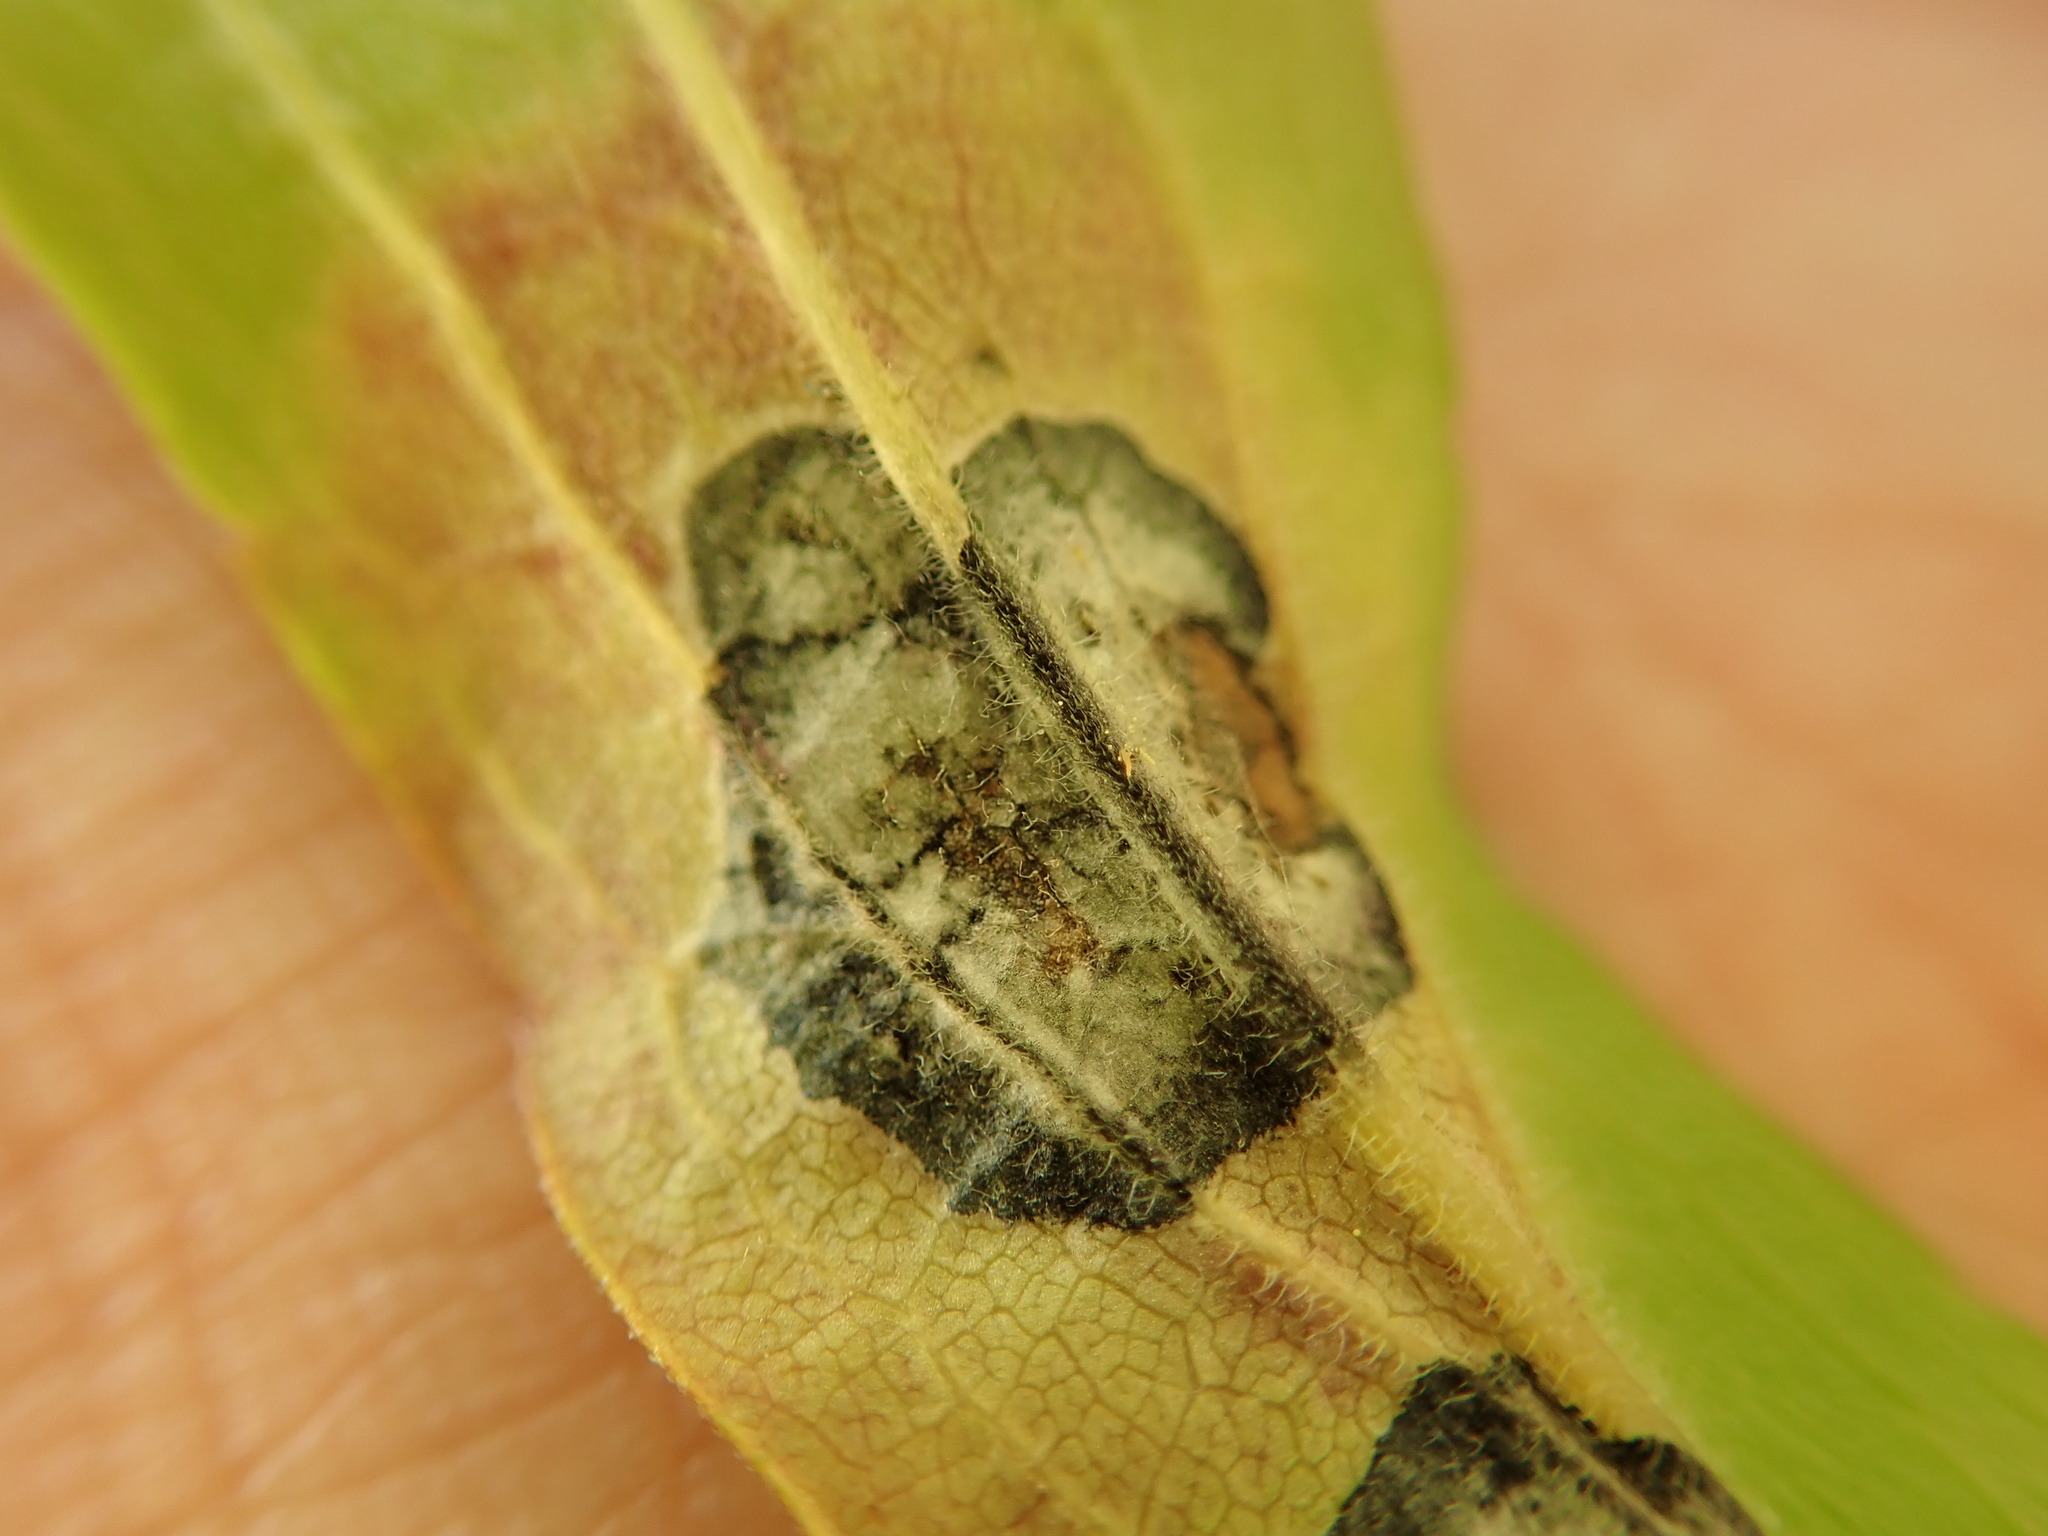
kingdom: Animalia
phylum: Arthropoda
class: Insecta
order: Diptera
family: Cecidomyiidae
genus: Asteromyia
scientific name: Asteromyia carbonifera
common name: Carbonifera goldenrod gall midge
